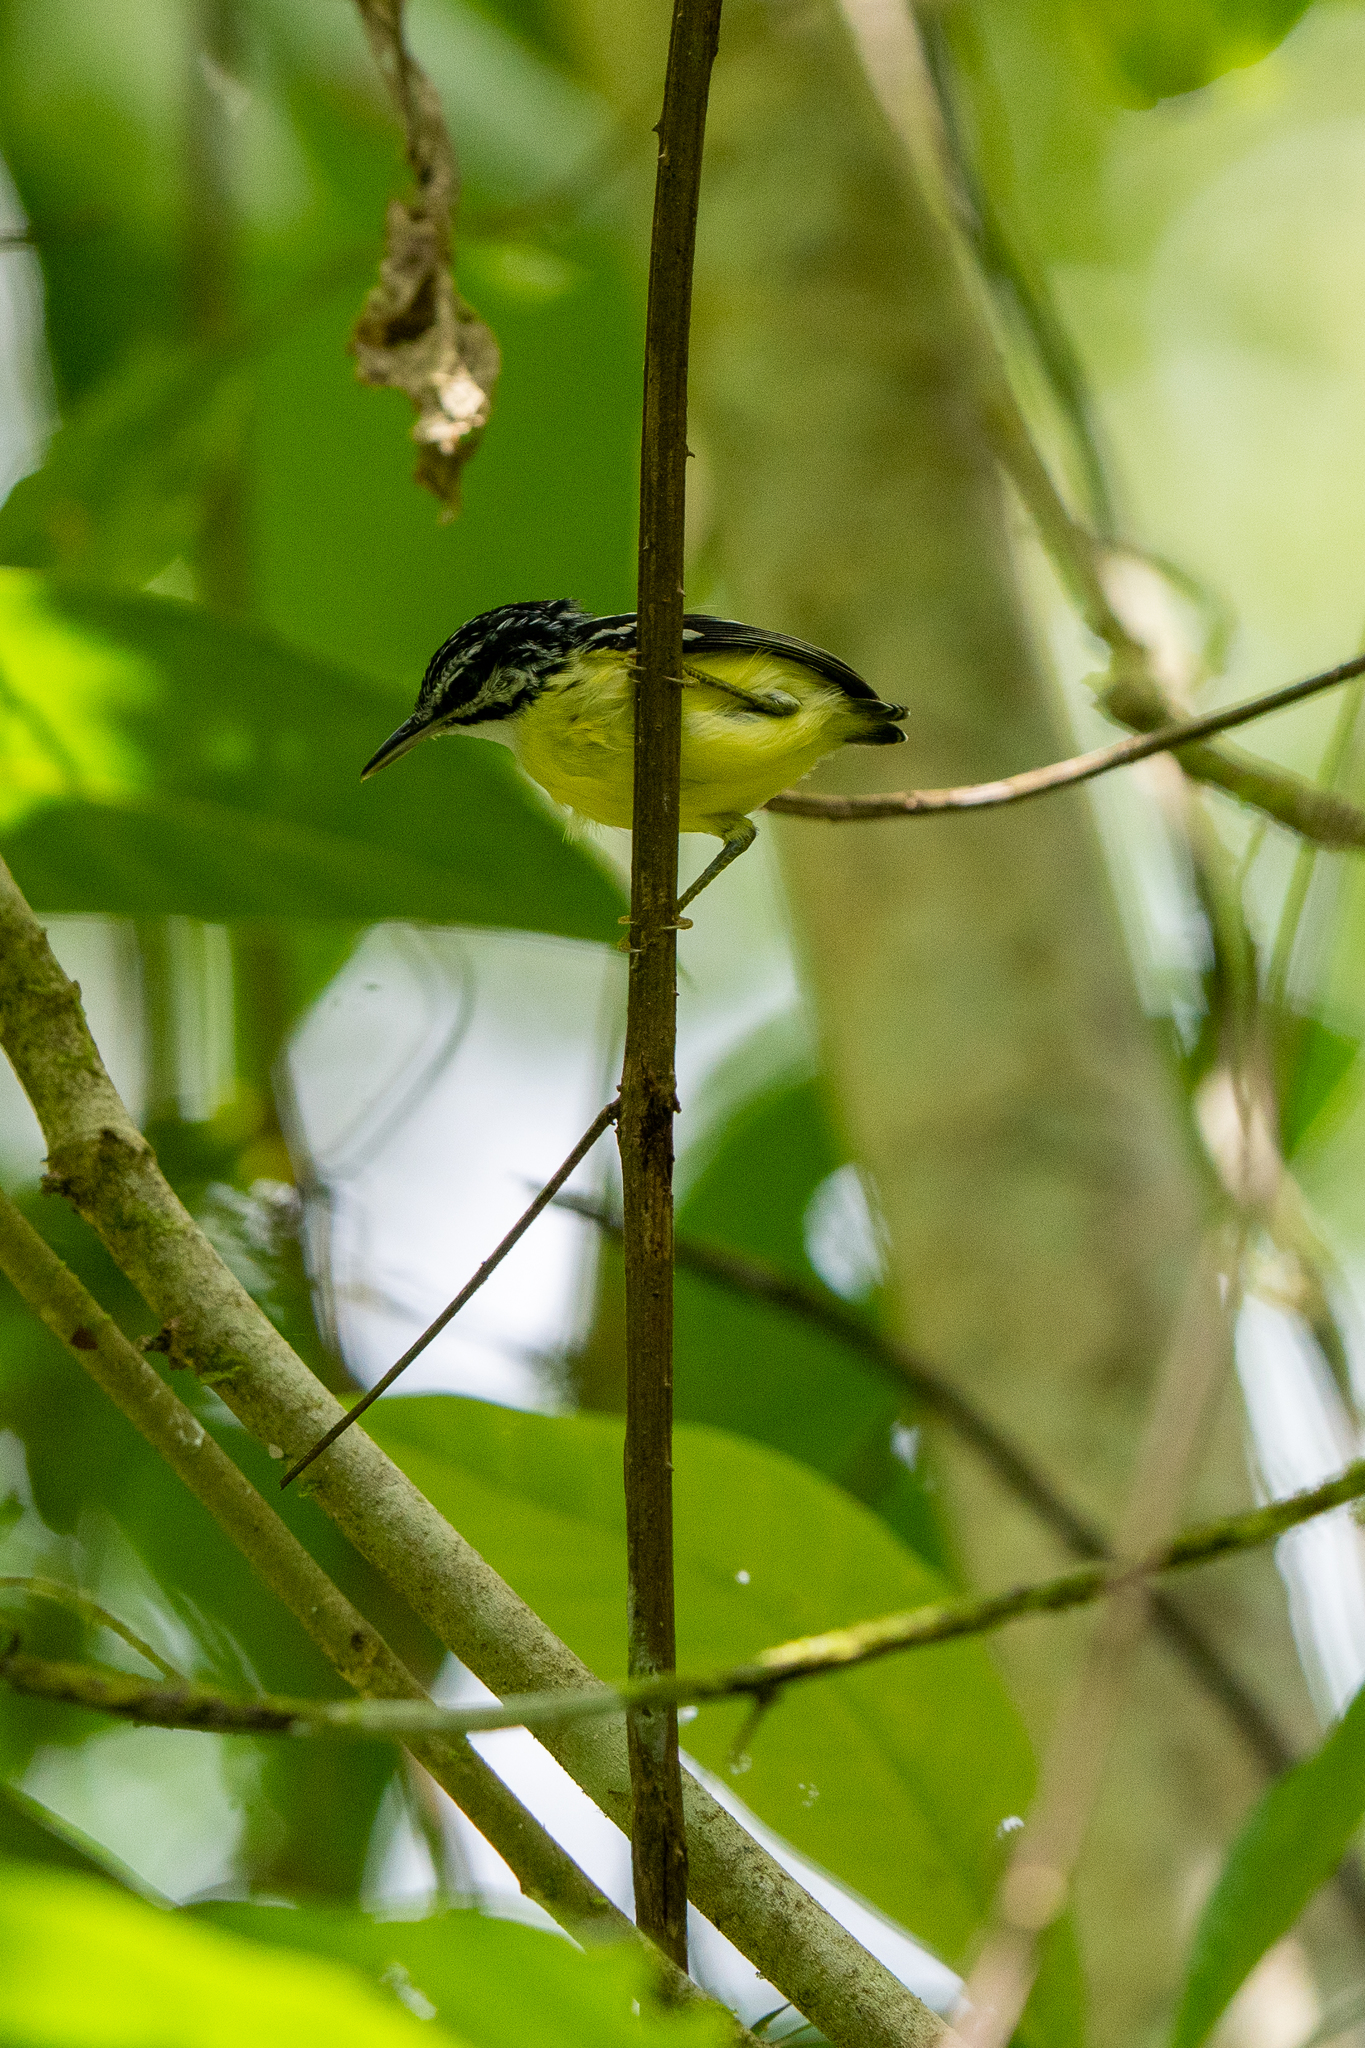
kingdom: Animalia
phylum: Chordata
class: Aves
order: Passeriformes
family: Thamnophilidae
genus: Myrmotherula
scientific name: Myrmotherula ignota
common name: Moustached antwren
